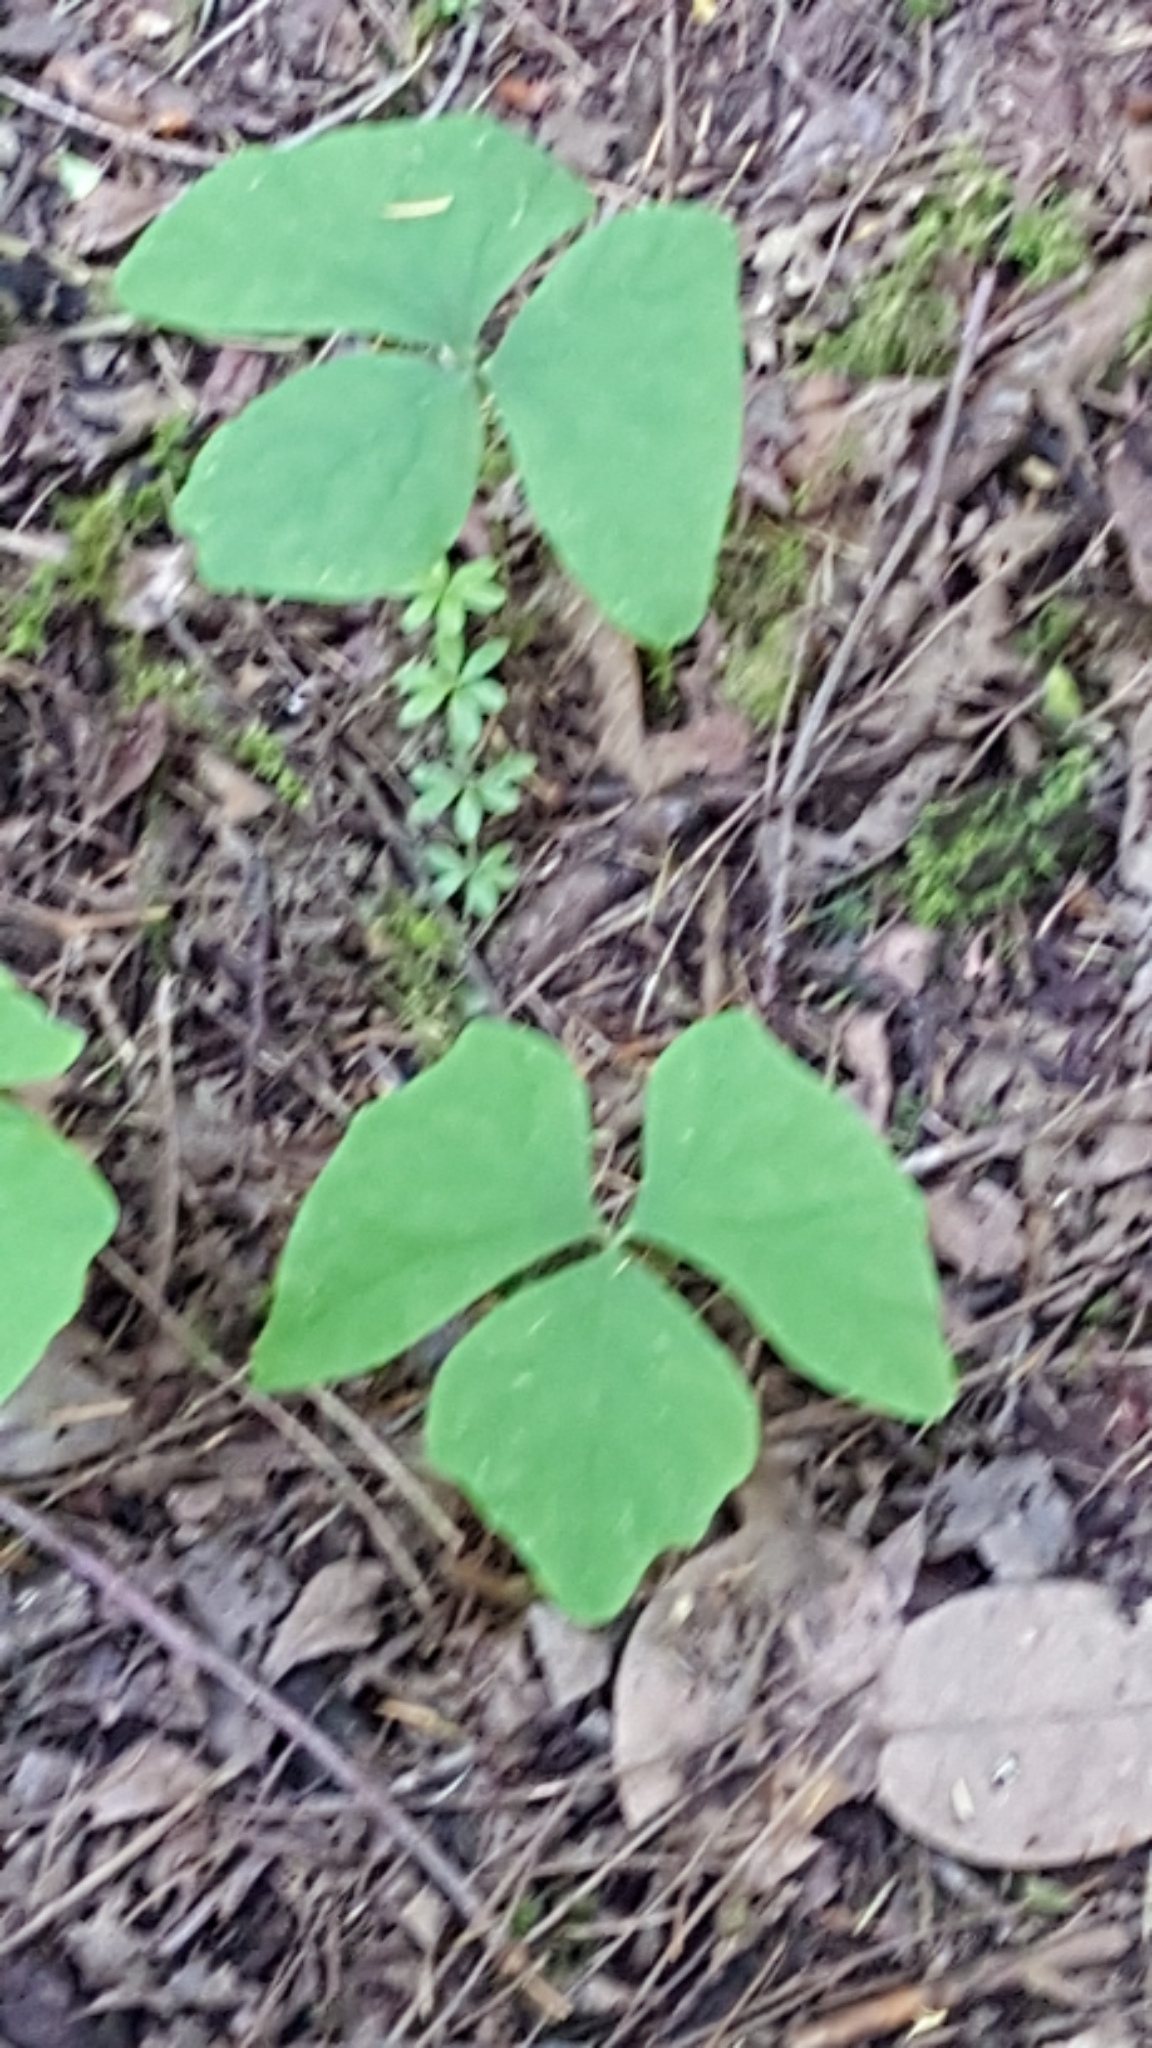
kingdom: Plantae
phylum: Tracheophyta
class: Magnoliopsida
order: Ranunculales
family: Berberidaceae
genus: Achlys
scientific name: Achlys triphylla
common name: Vanilla-leaf
